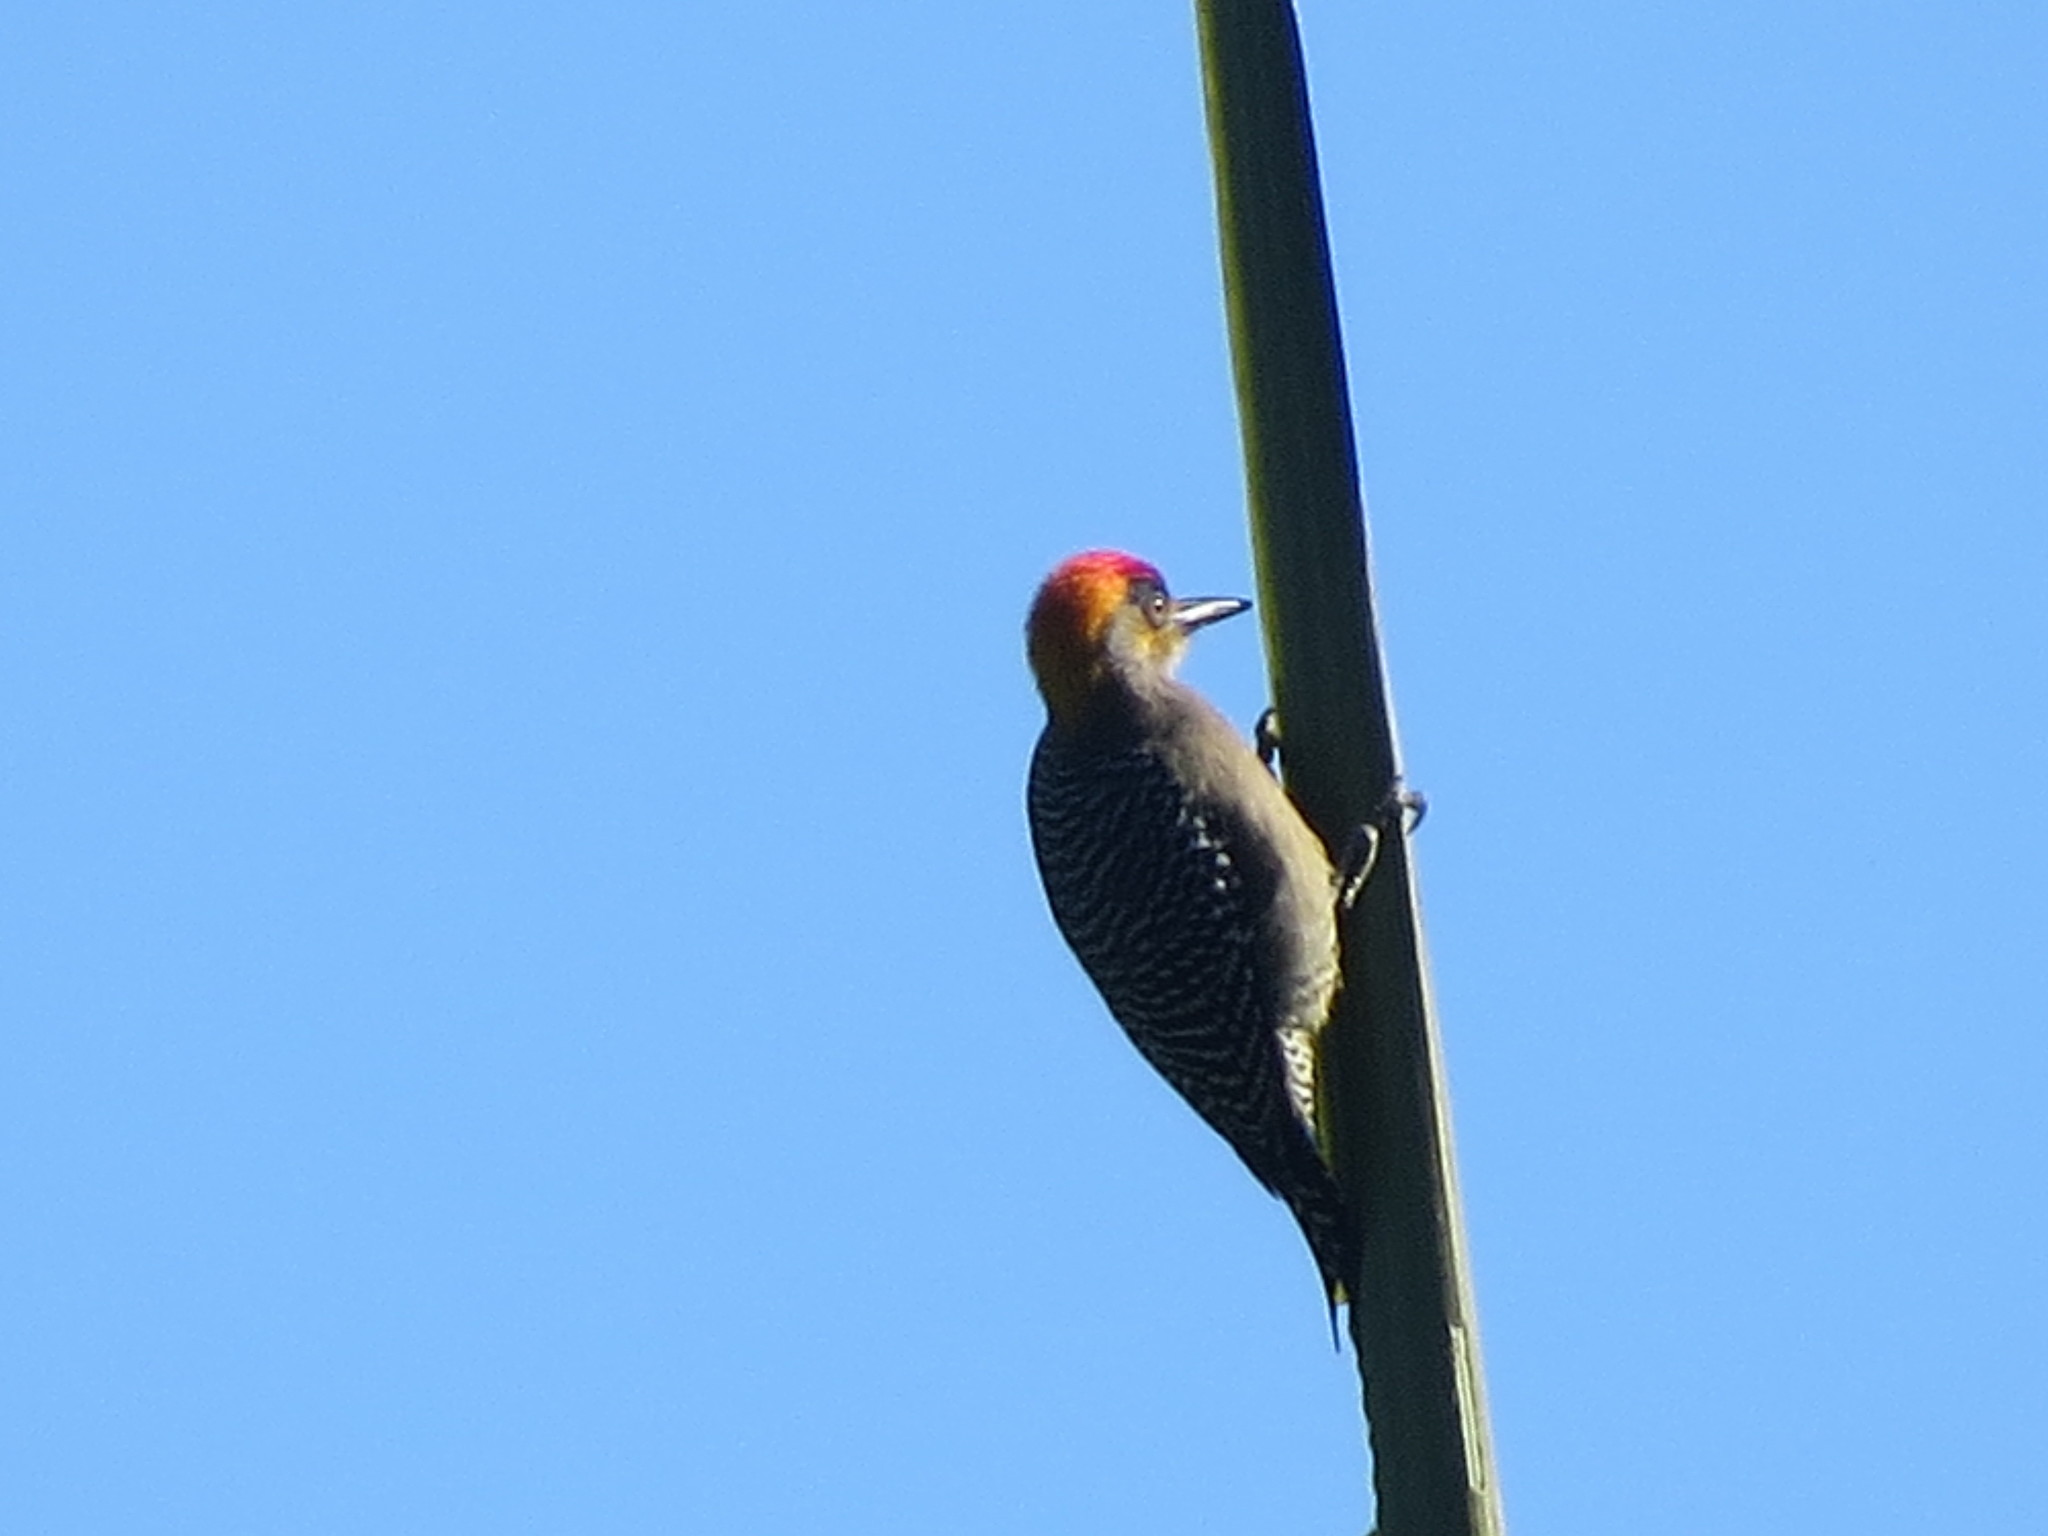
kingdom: Animalia
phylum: Chordata
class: Aves
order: Piciformes
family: Picidae
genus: Melanerpes
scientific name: Melanerpes chrysogenys
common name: Golden-cheeked woodpecker
